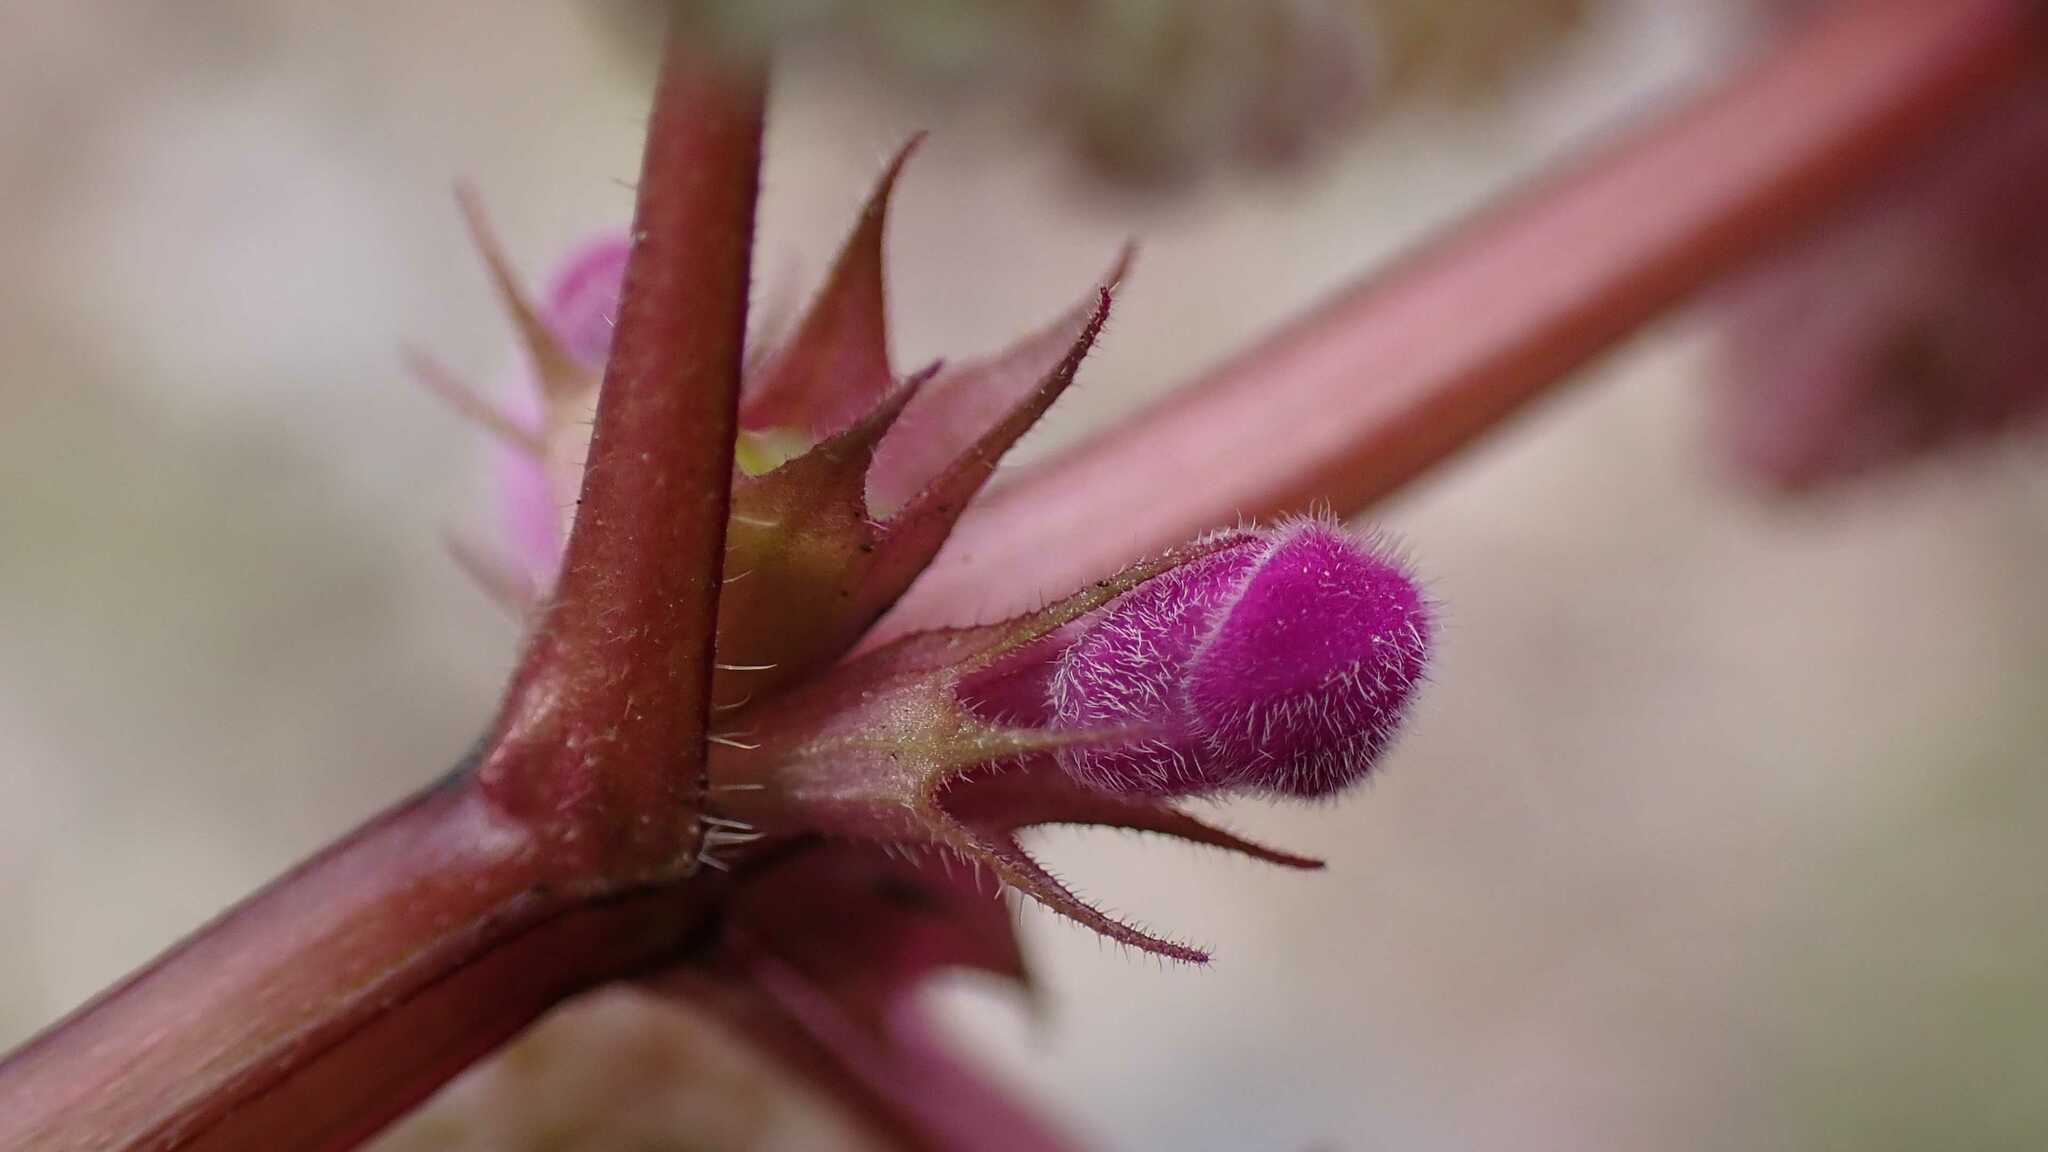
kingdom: Plantae
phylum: Tracheophyta
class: Magnoliopsida
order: Lamiales
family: Lamiaceae
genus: Lamium
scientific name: Lamium purpureum
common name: Red dead-nettle
